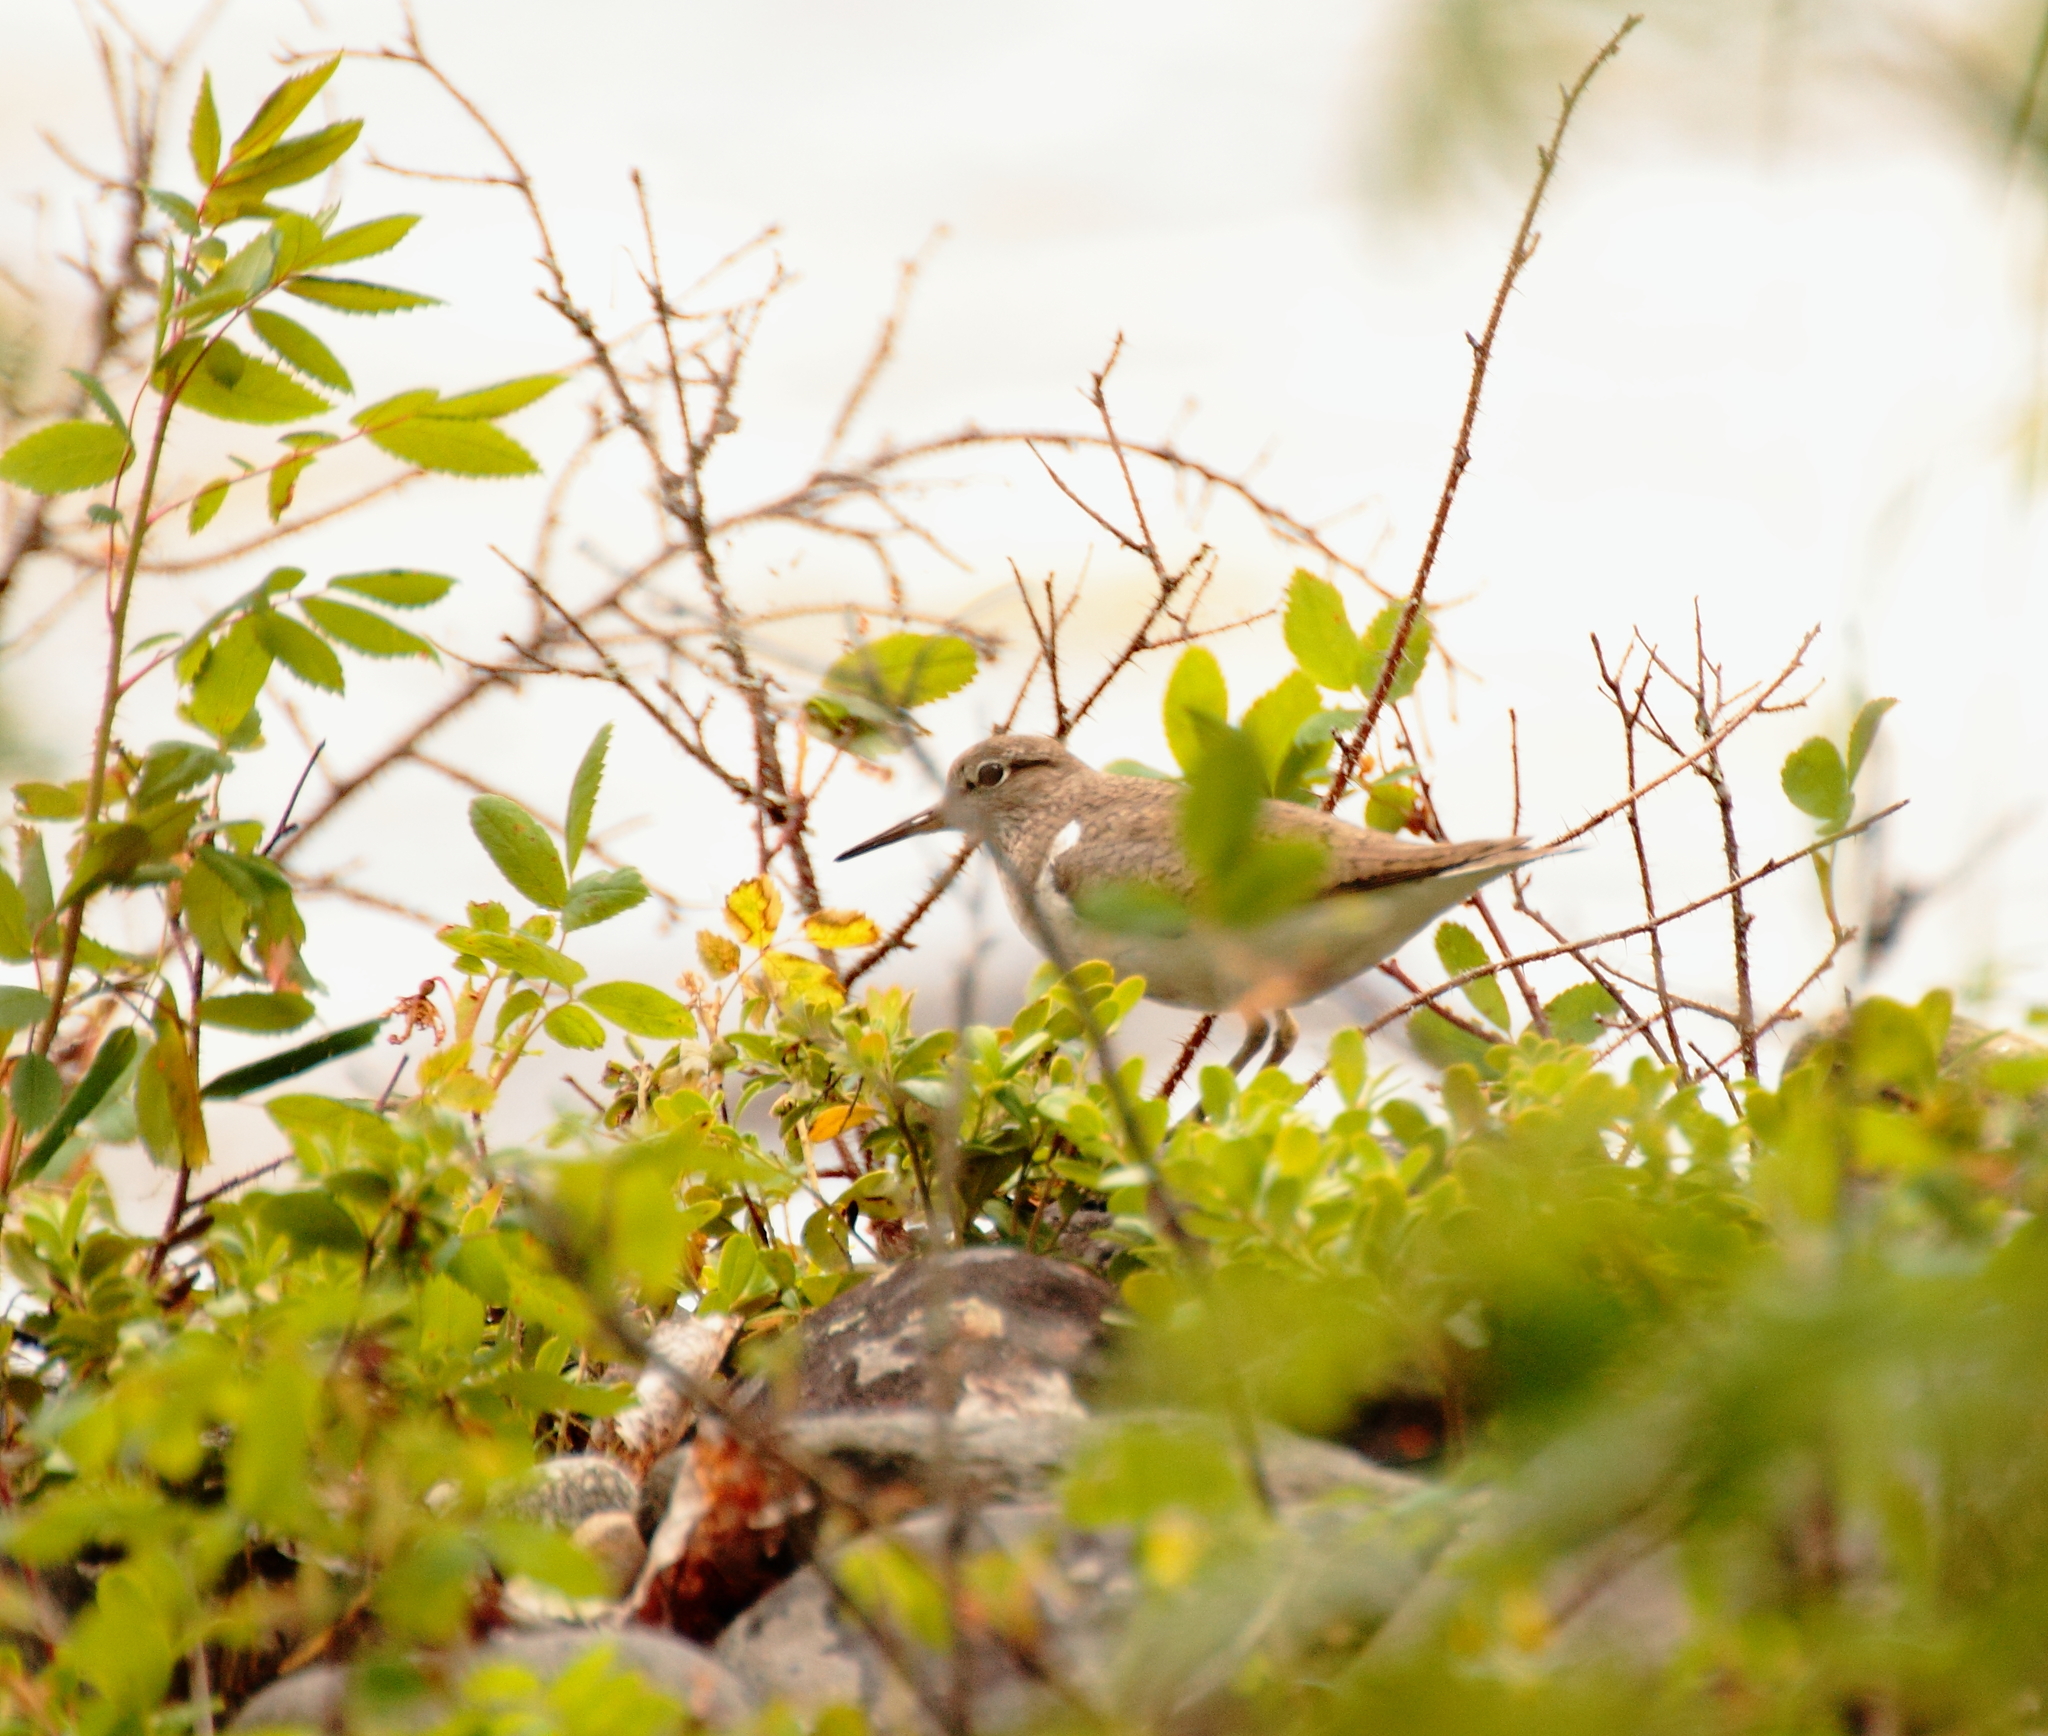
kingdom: Animalia
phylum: Chordata
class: Aves
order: Charadriiformes
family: Scolopacidae
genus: Actitis
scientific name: Actitis hypoleucos
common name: Common sandpiper
